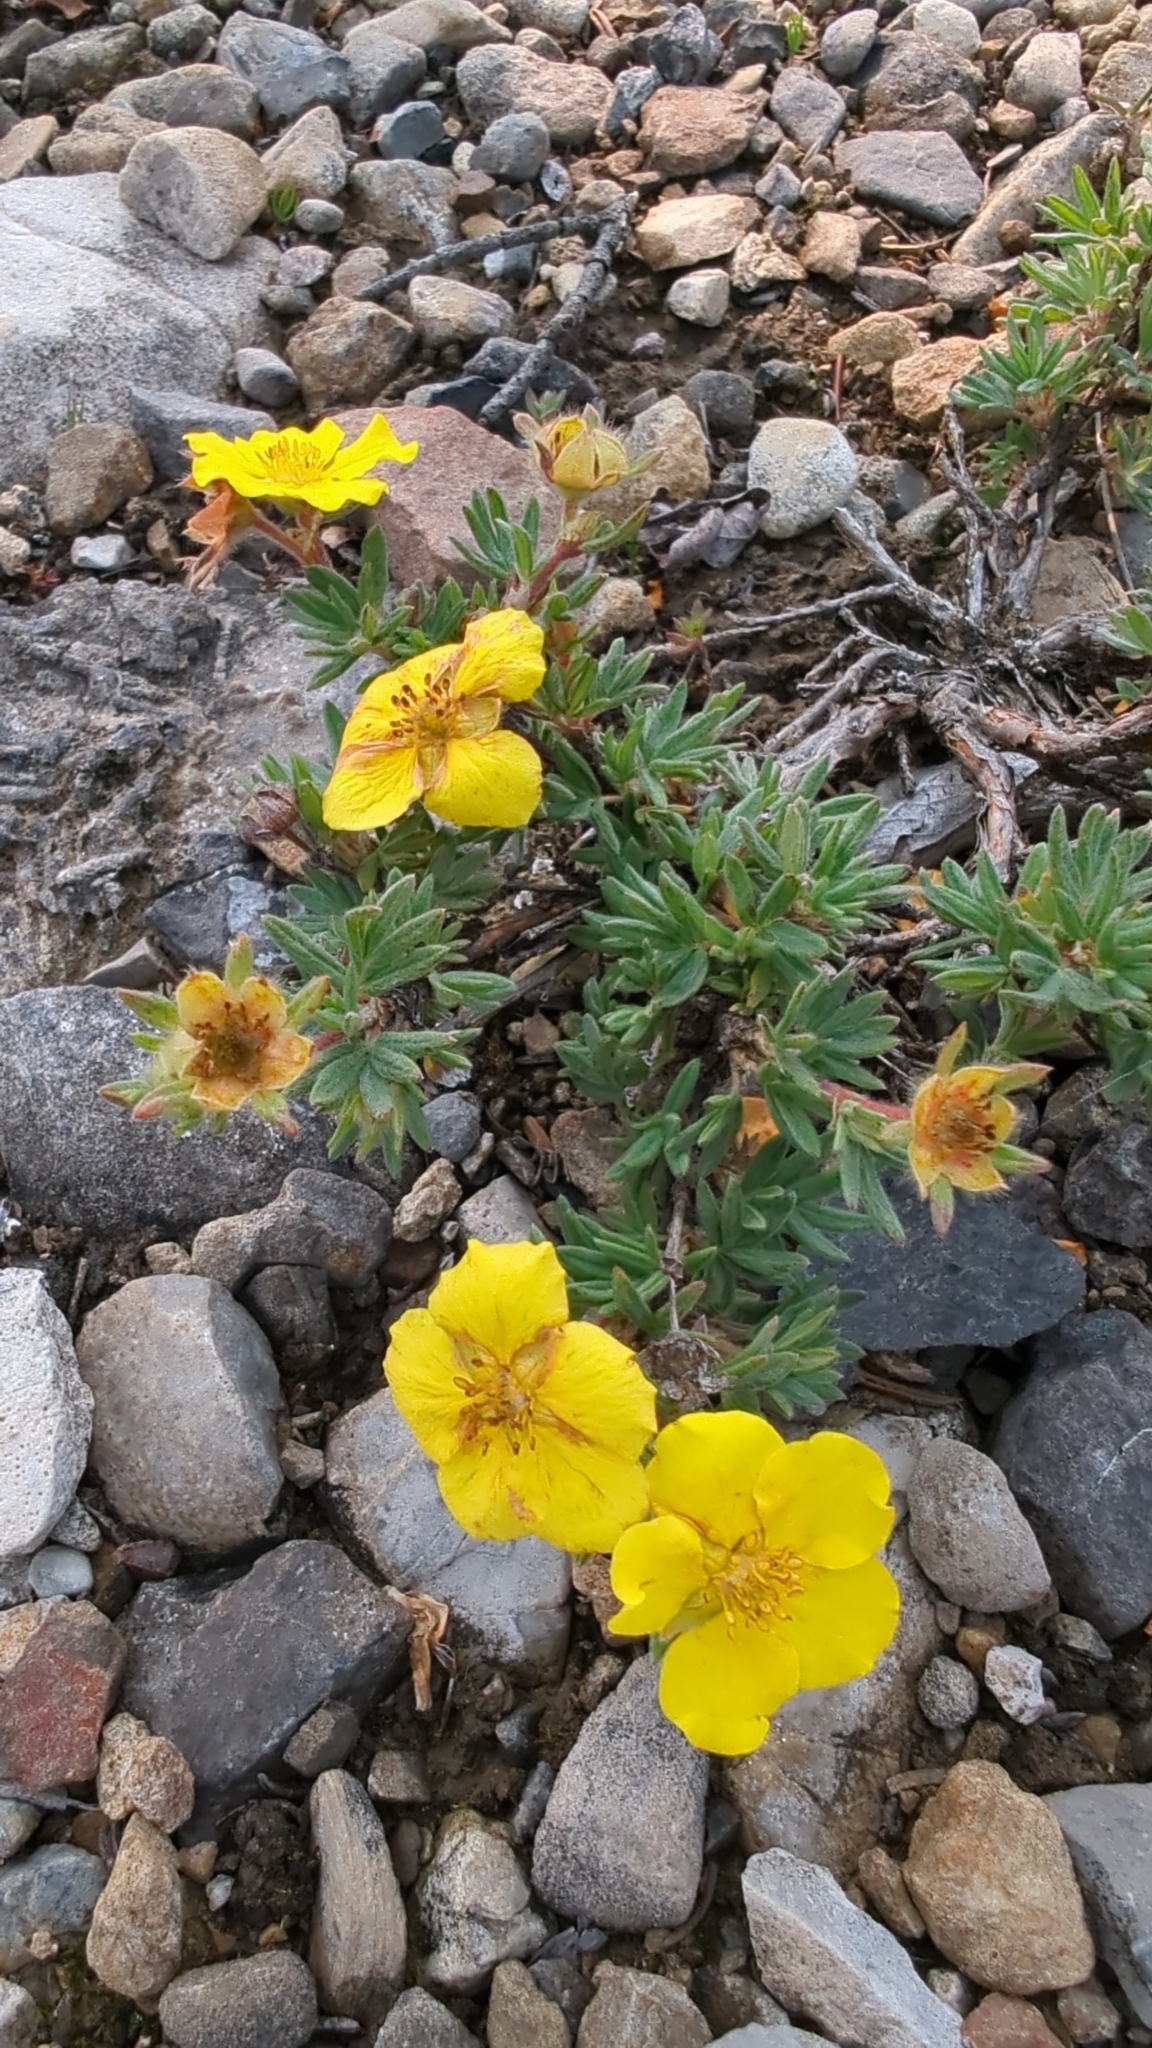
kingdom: Plantae
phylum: Tracheophyta
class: Magnoliopsida
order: Rosales
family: Rosaceae
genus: Dasiphora
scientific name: Dasiphora fruticosa
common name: Shrubby cinquefoil
